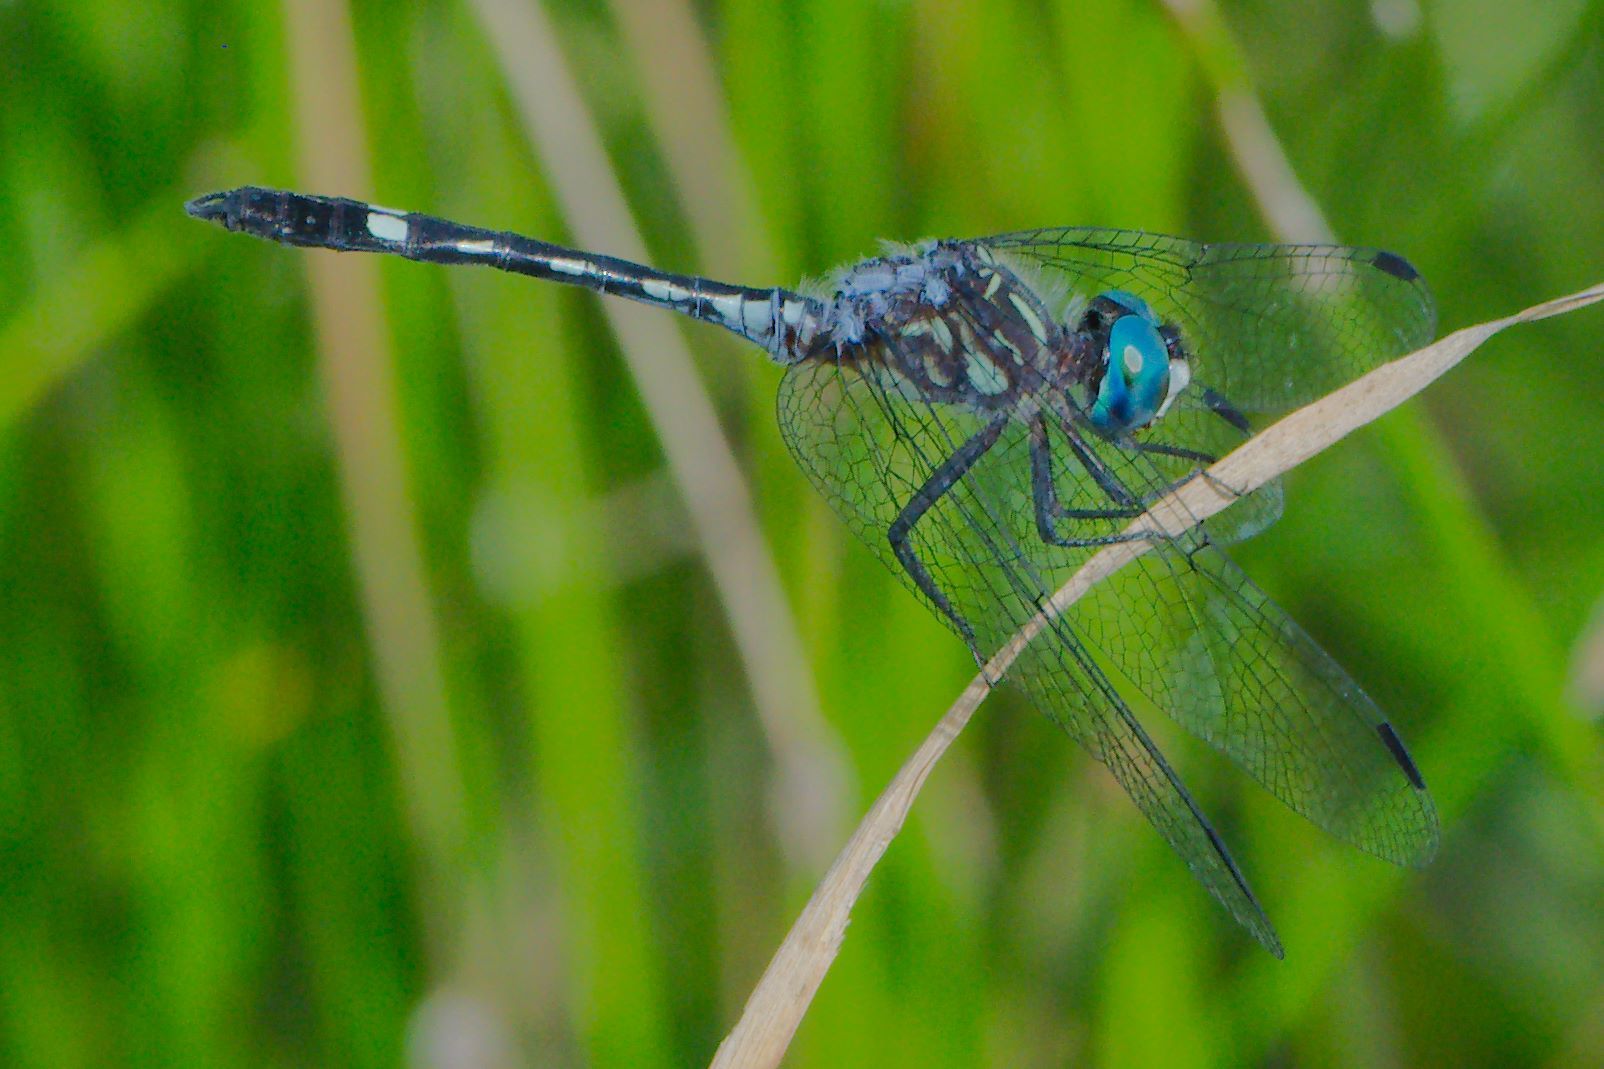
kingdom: Animalia
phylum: Arthropoda
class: Insecta
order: Odonata
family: Libellulidae
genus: Micrathyria
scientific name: Micrathyria hagenii
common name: Thornbush dasher
